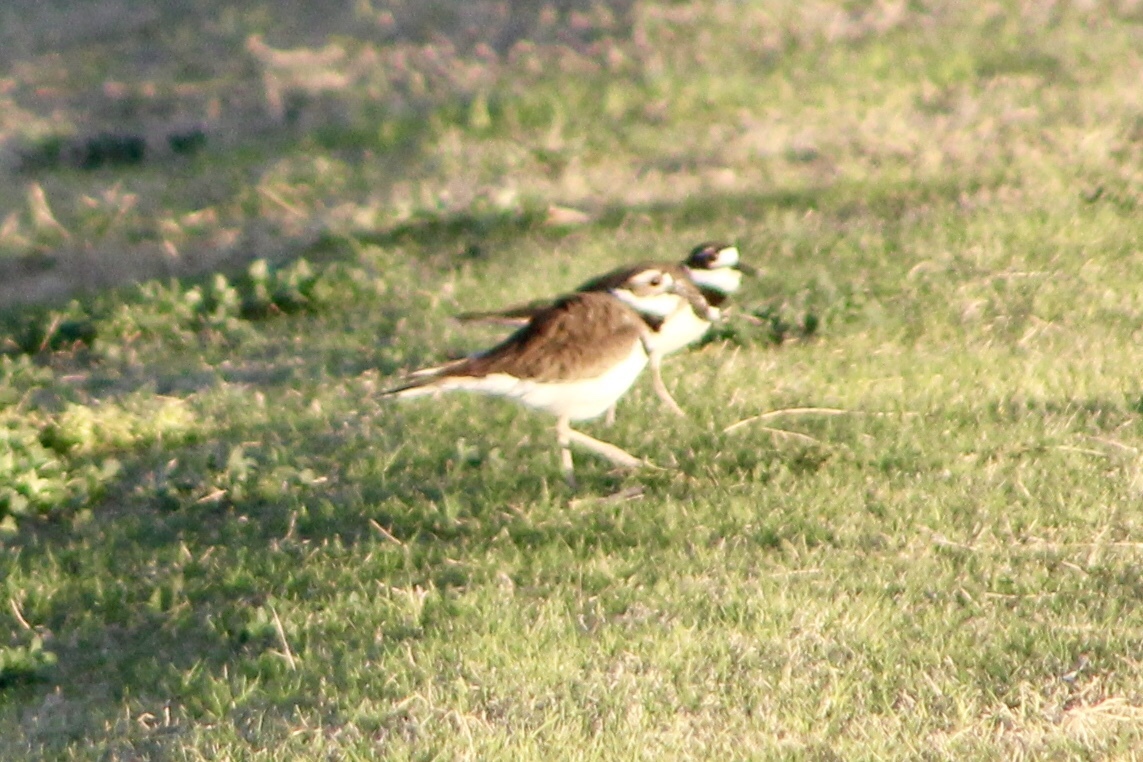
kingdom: Animalia
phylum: Chordata
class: Aves
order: Charadriiformes
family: Charadriidae
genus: Charadrius
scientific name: Charadrius vociferus
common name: Killdeer
